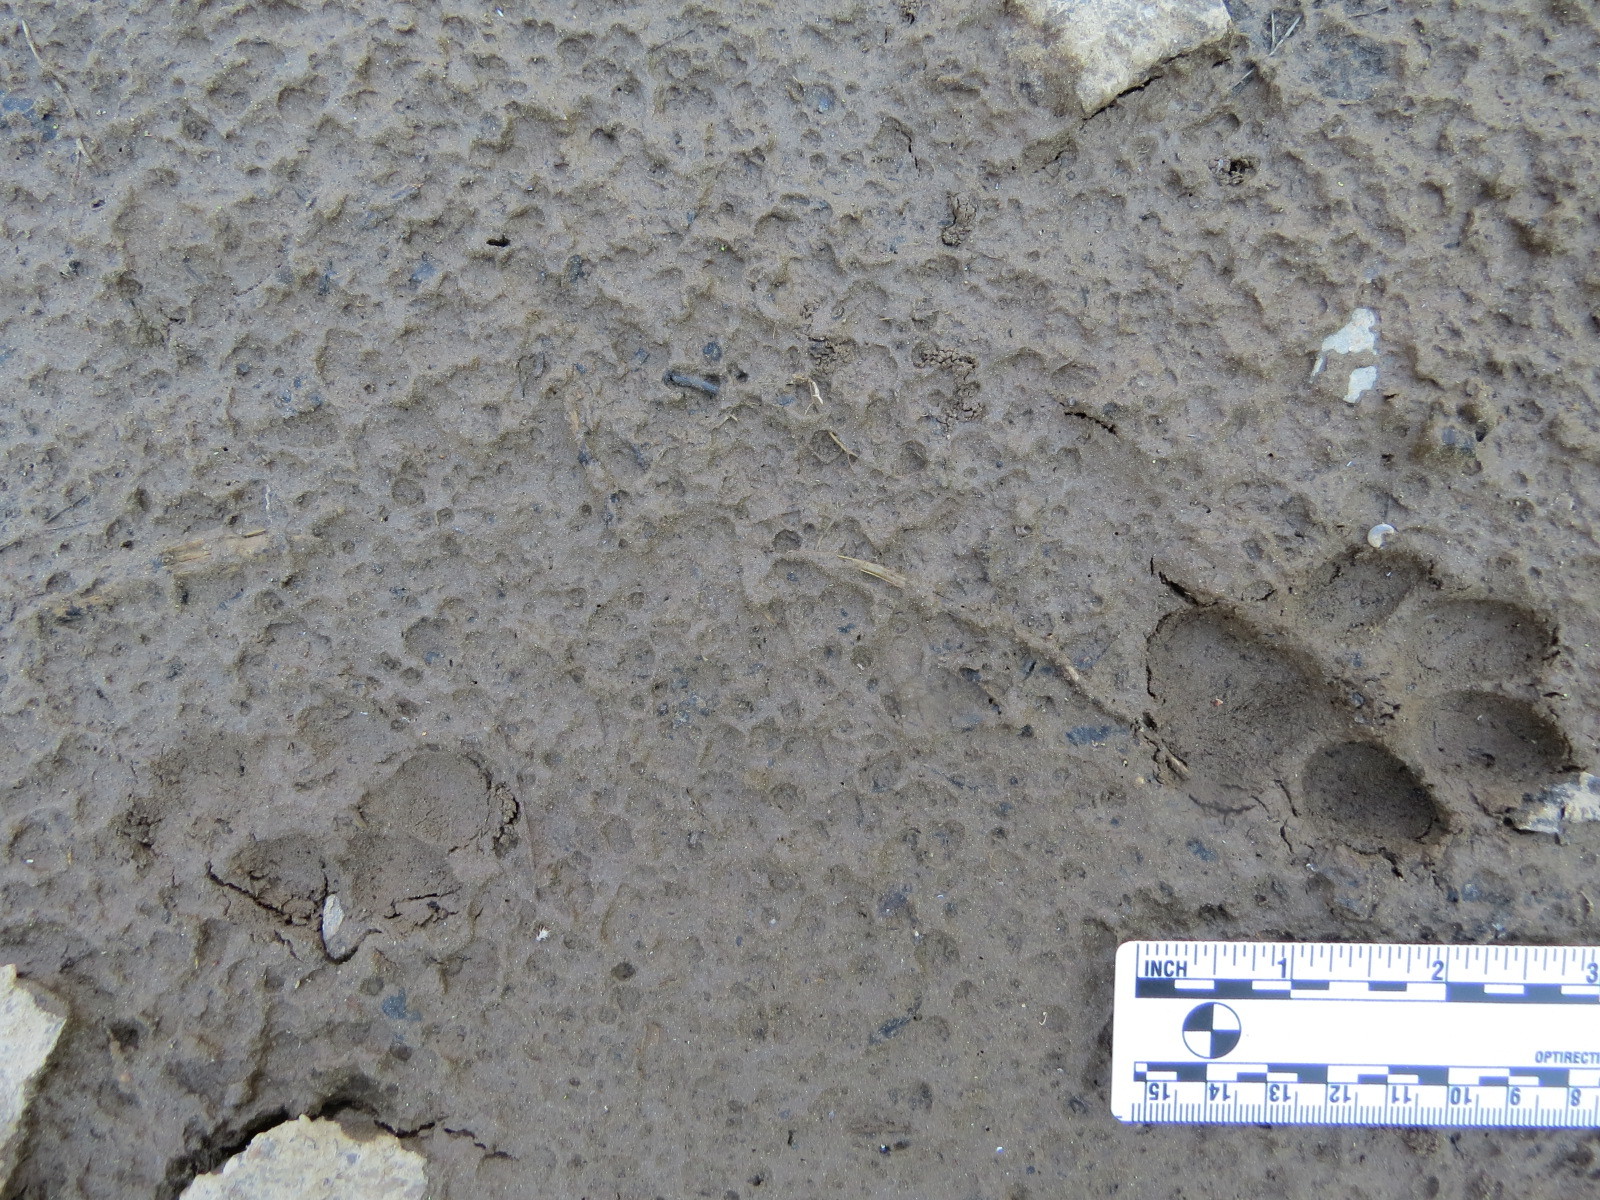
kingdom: Animalia
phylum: Chordata
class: Mammalia
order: Carnivora
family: Canidae
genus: Canis
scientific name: Canis latrans
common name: Coyote
